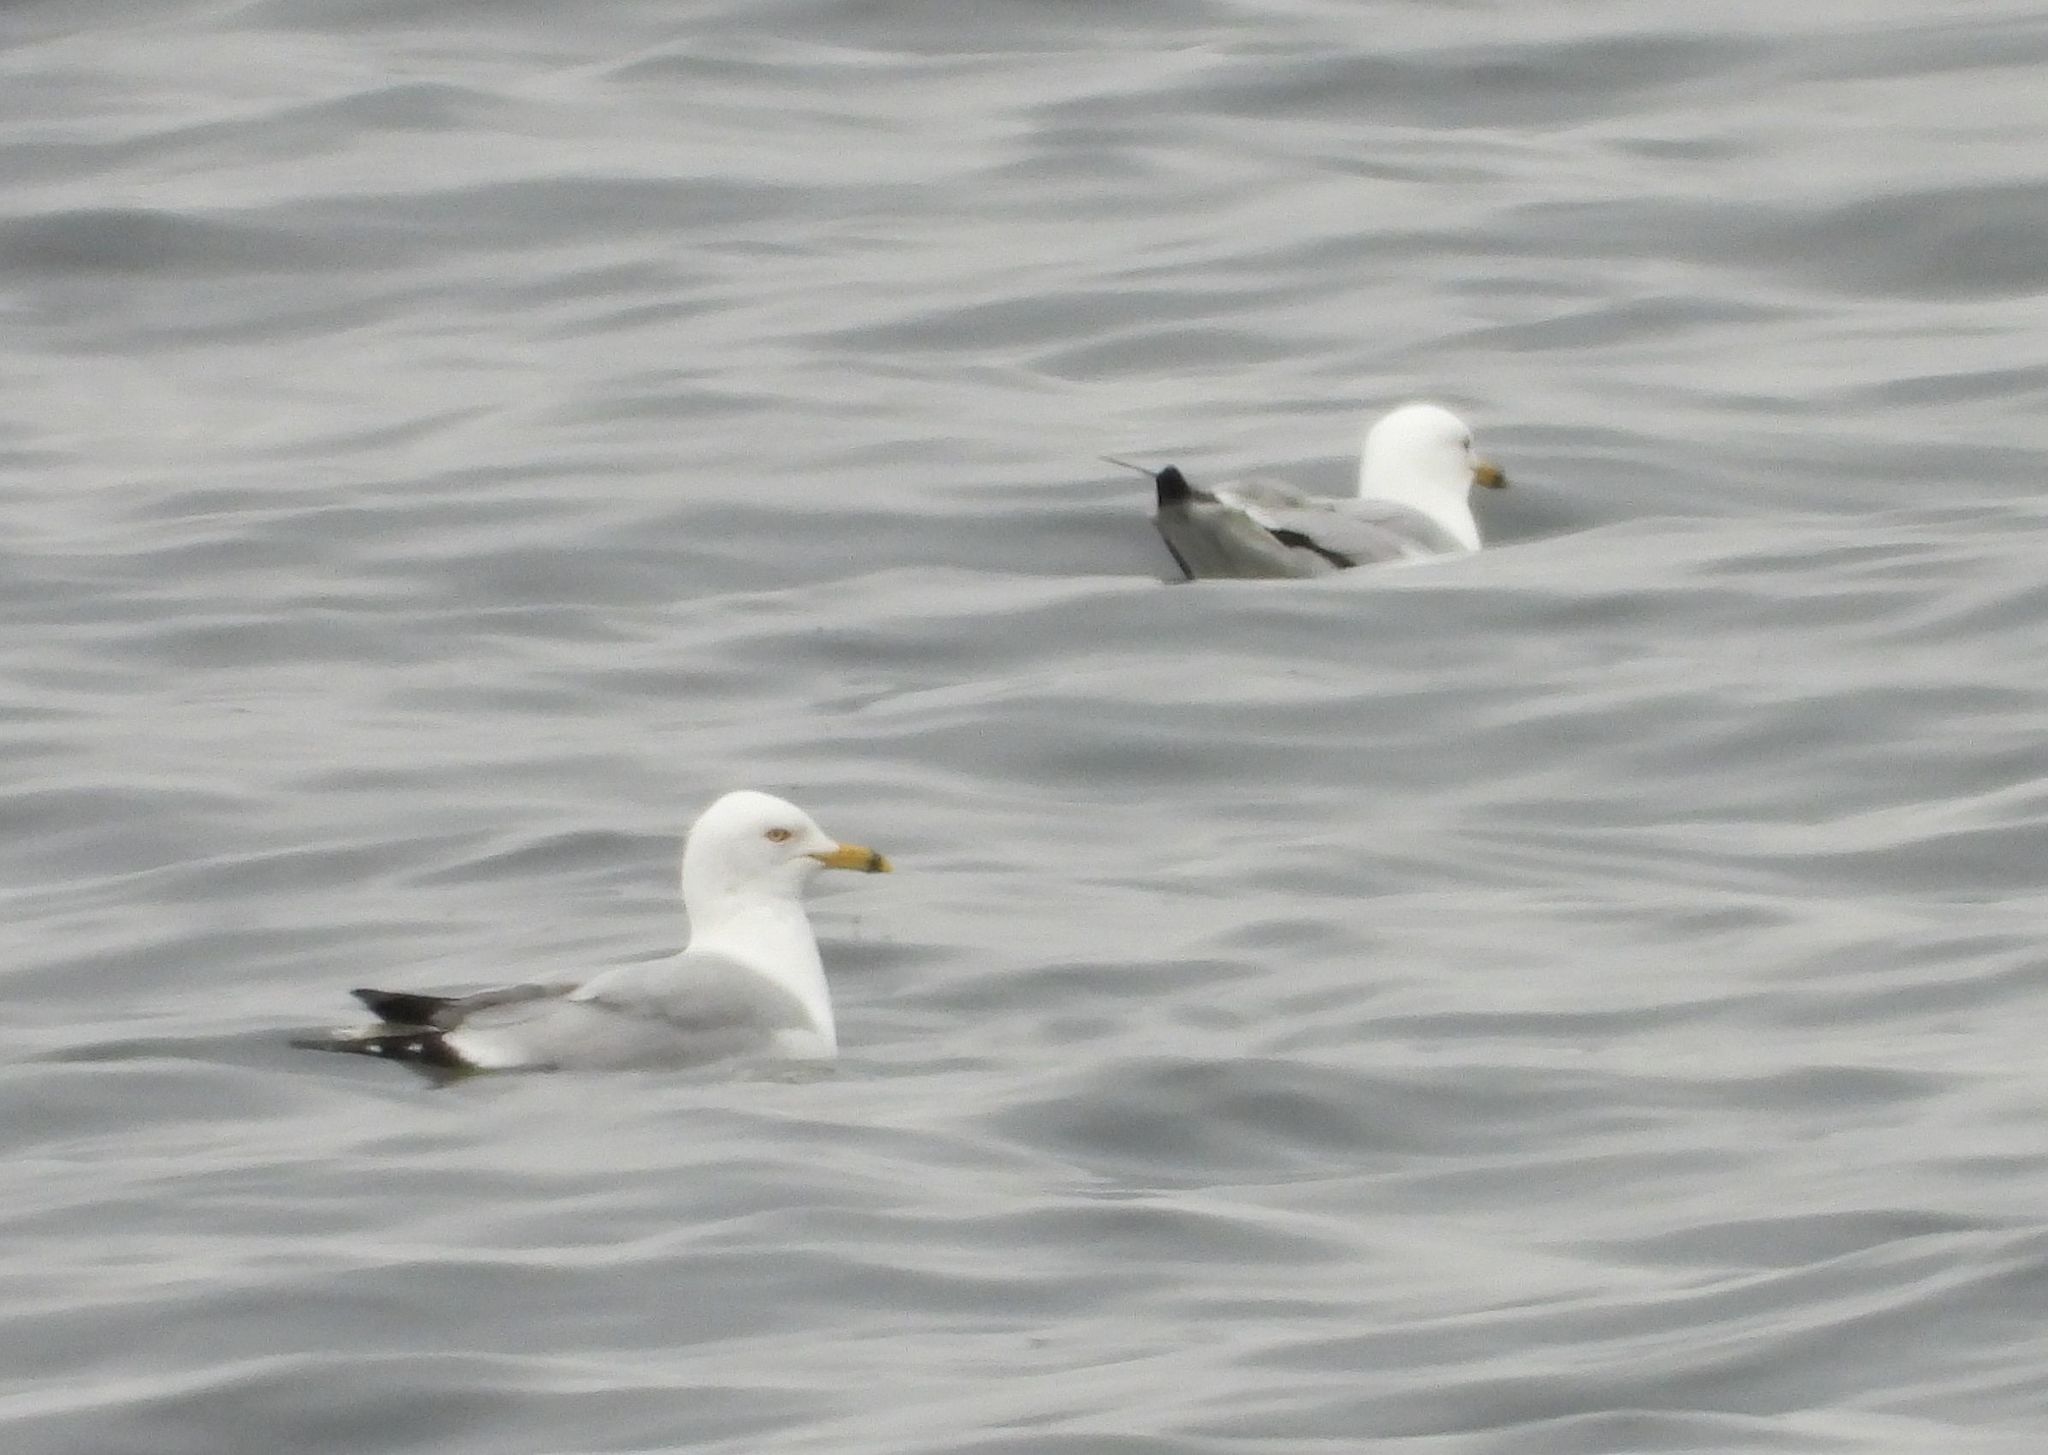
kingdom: Animalia
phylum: Chordata
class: Aves
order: Charadriiformes
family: Laridae
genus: Larus
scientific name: Larus delawarensis
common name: Ring-billed gull
